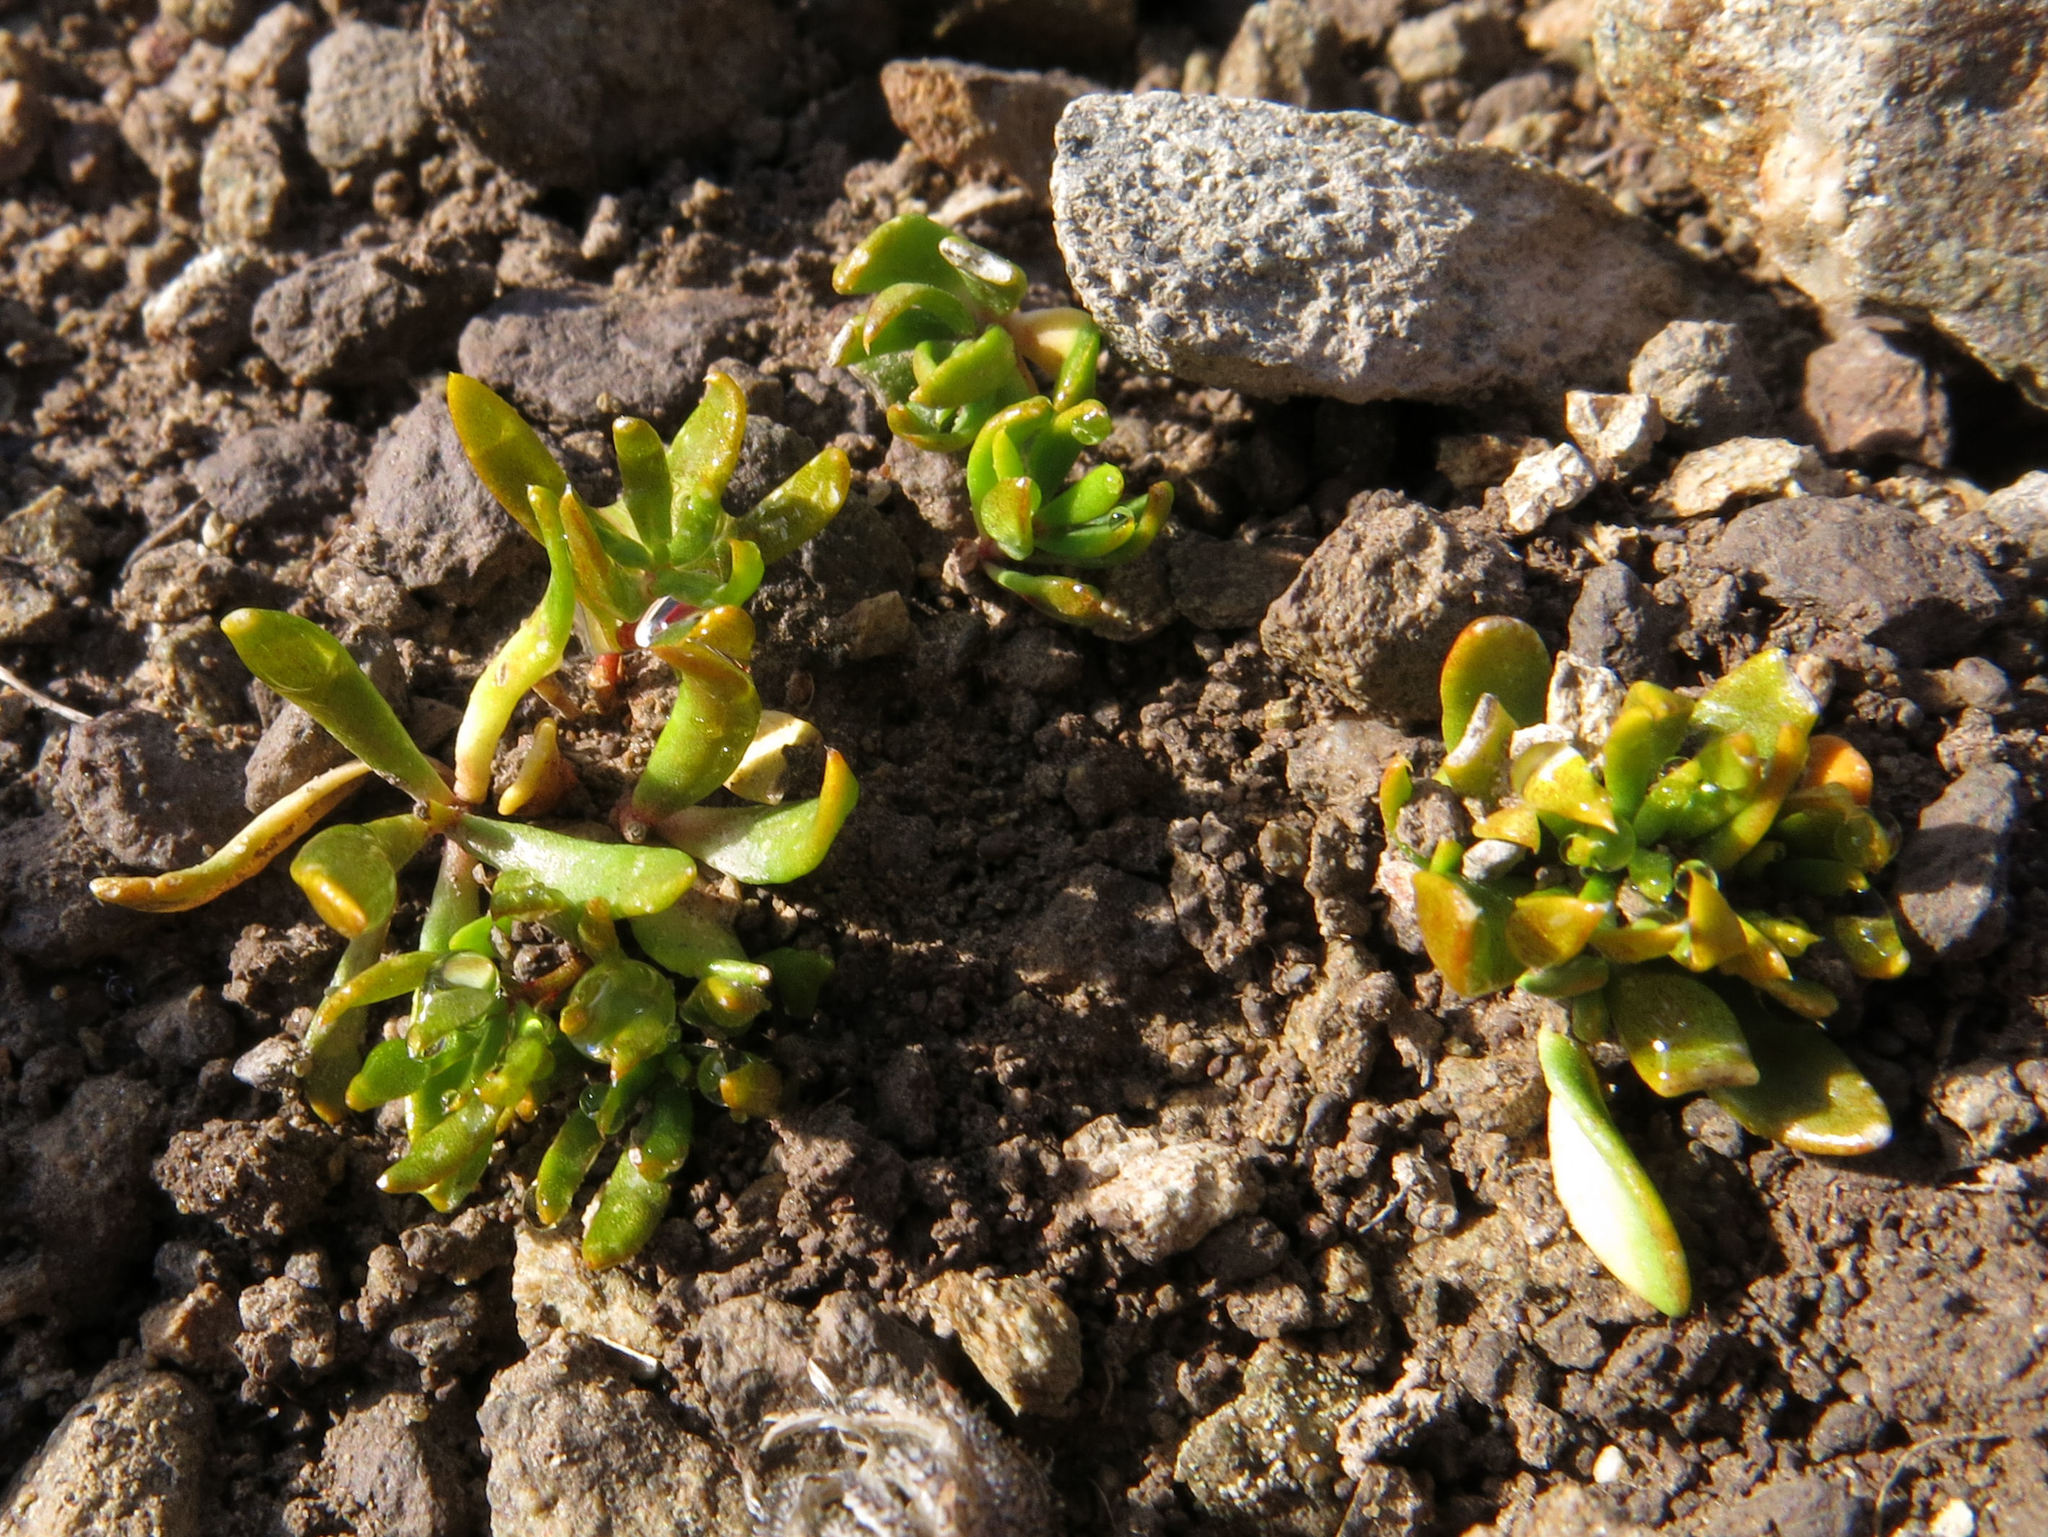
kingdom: Plantae
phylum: Tracheophyta
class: Magnoliopsida
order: Celastrales
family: Celastraceae
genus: Stackhousia
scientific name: Stackhousia minima
